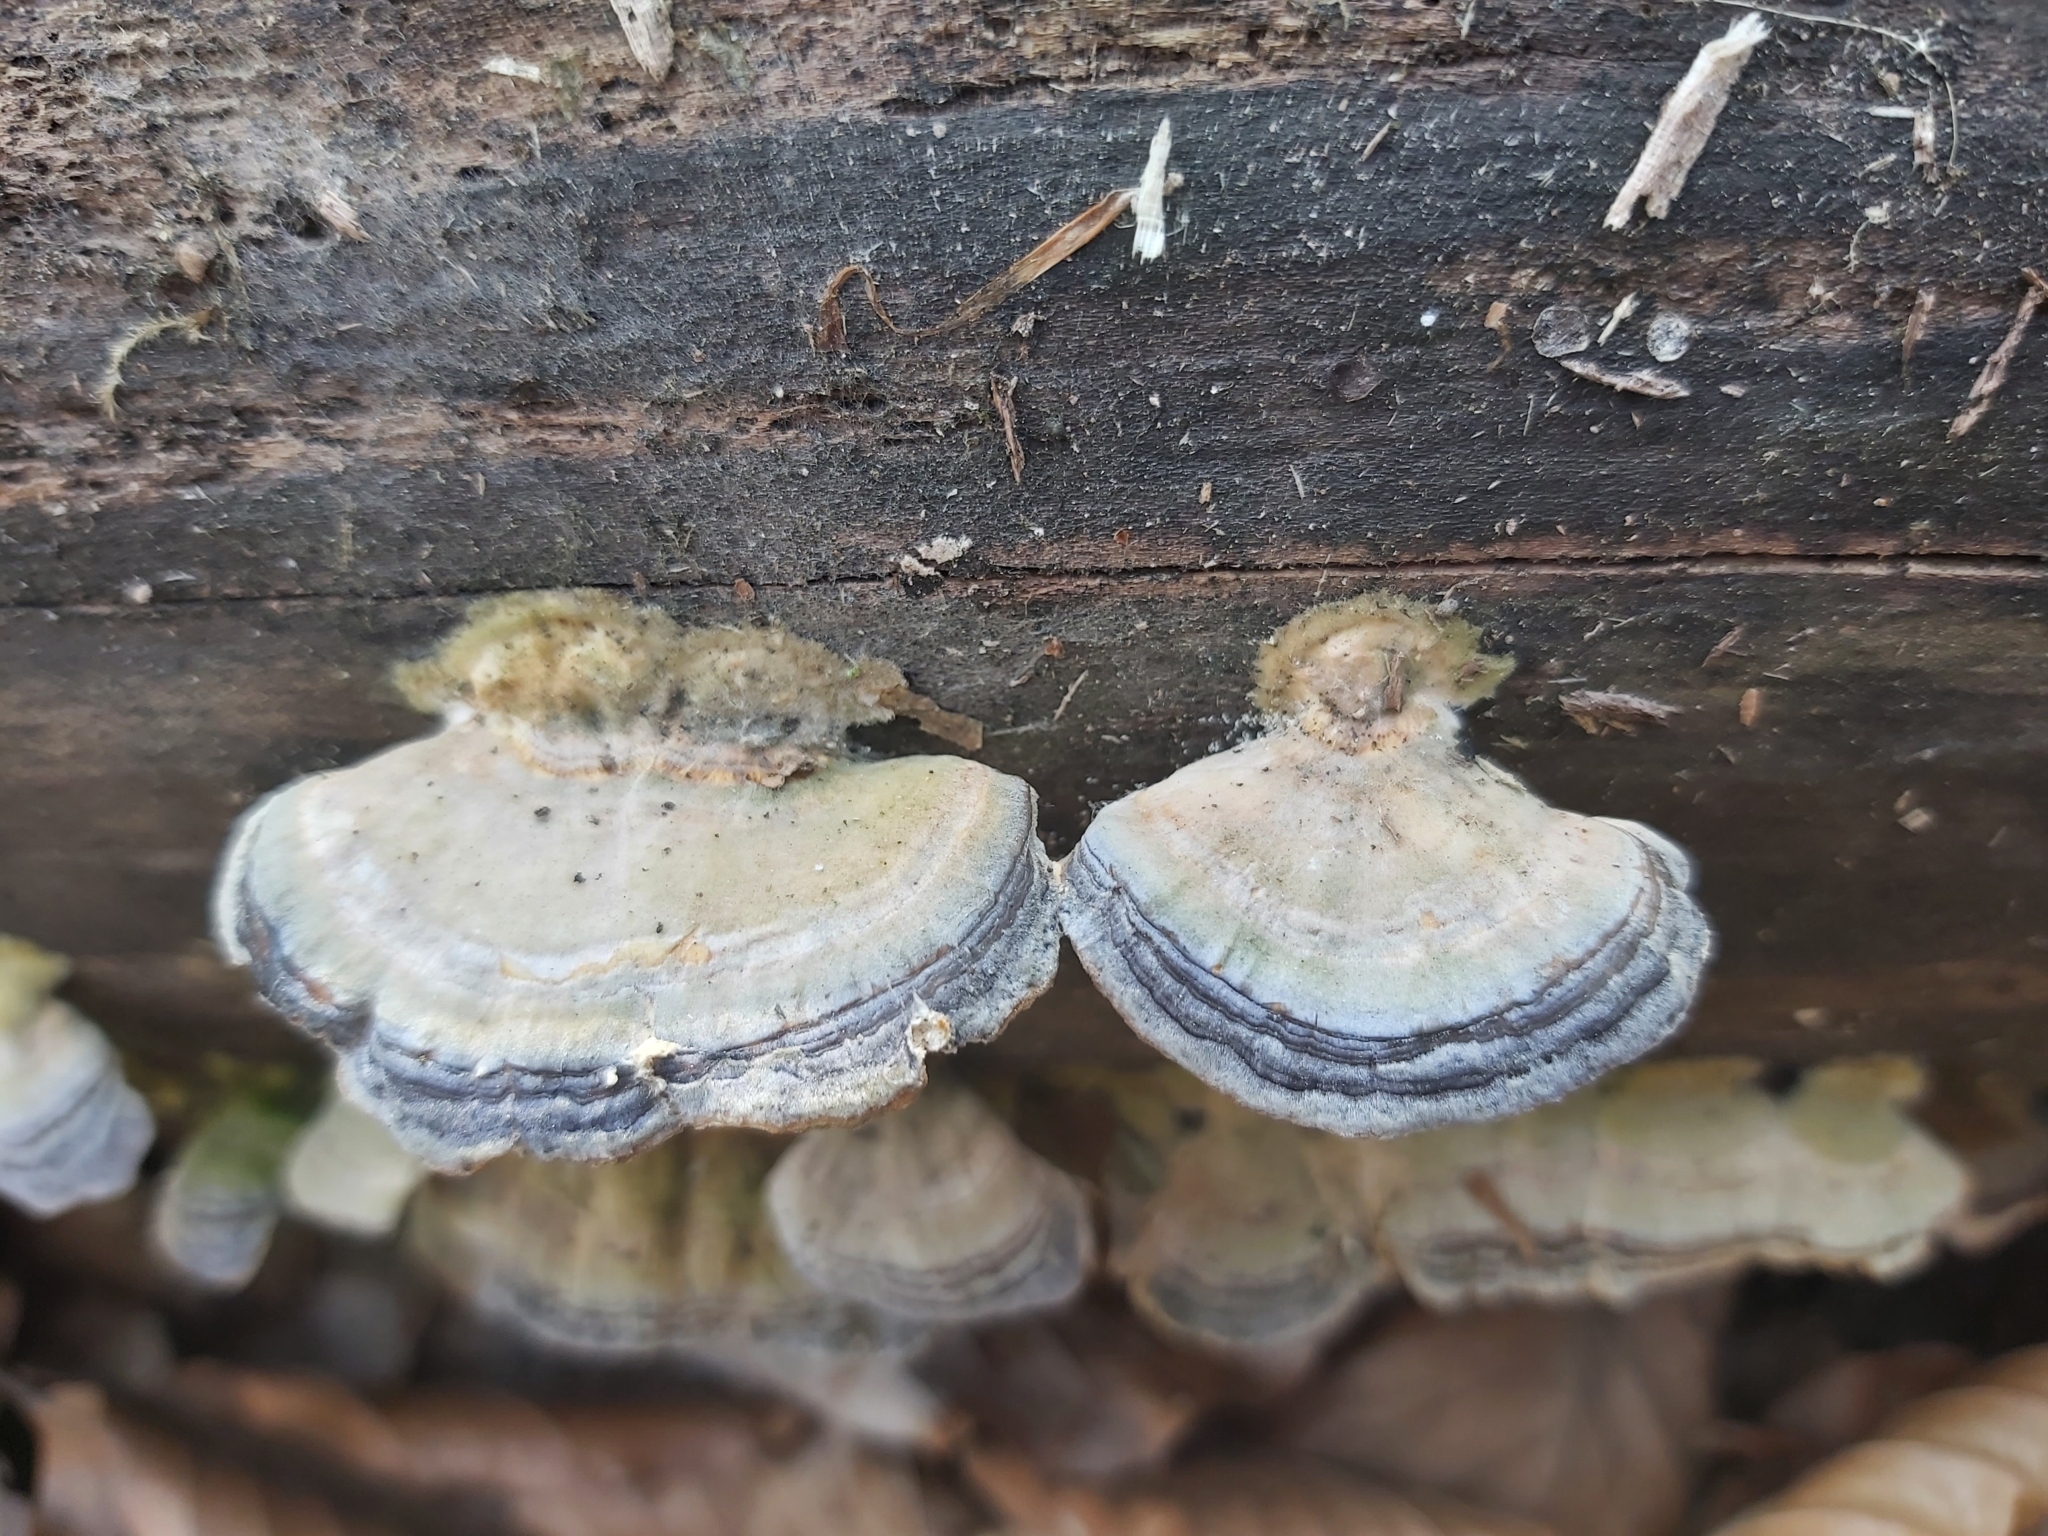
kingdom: Fungi
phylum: Basidiomycota
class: Agaricomycetes
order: Polyporales
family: Polyporaceae
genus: Trametes
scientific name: Trametes versicolor
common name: Turkeytail
